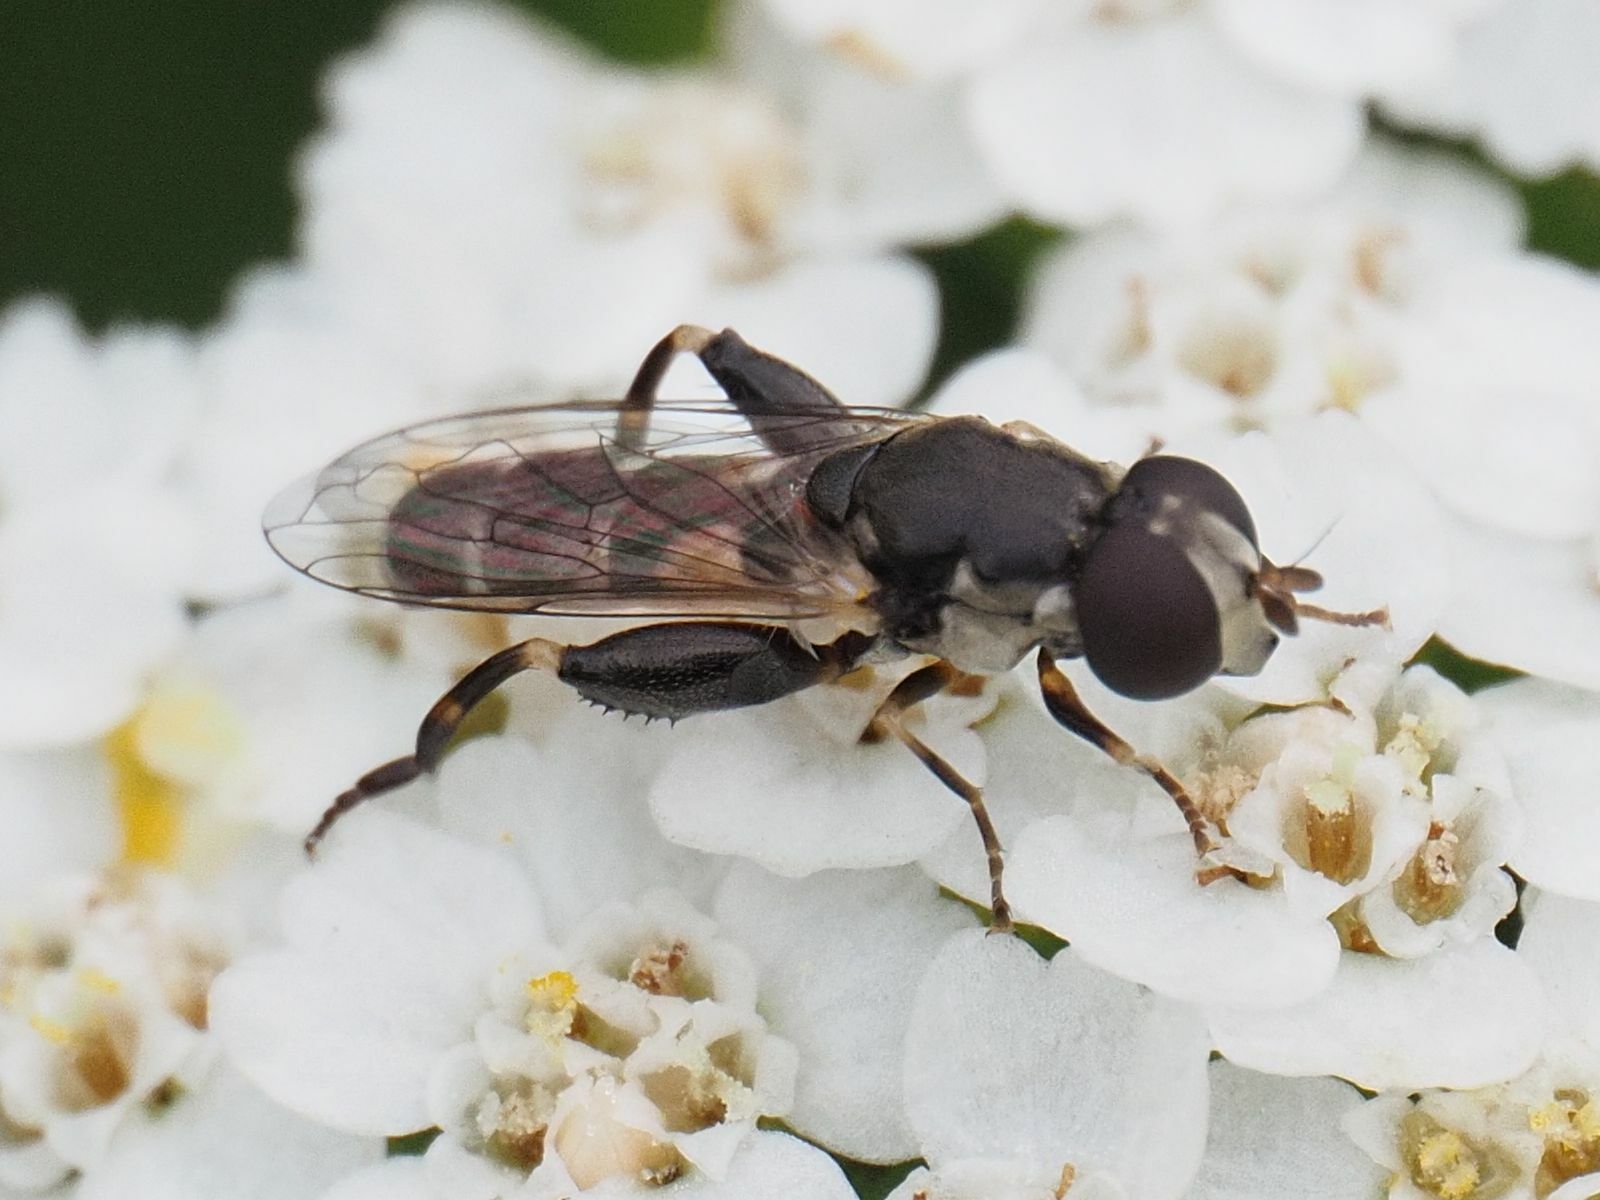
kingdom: Animalia
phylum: Arthropoda
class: Insecta
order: Diptera
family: Syrphidae
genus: Syritta
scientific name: Syritta pipiens
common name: Hover fly
